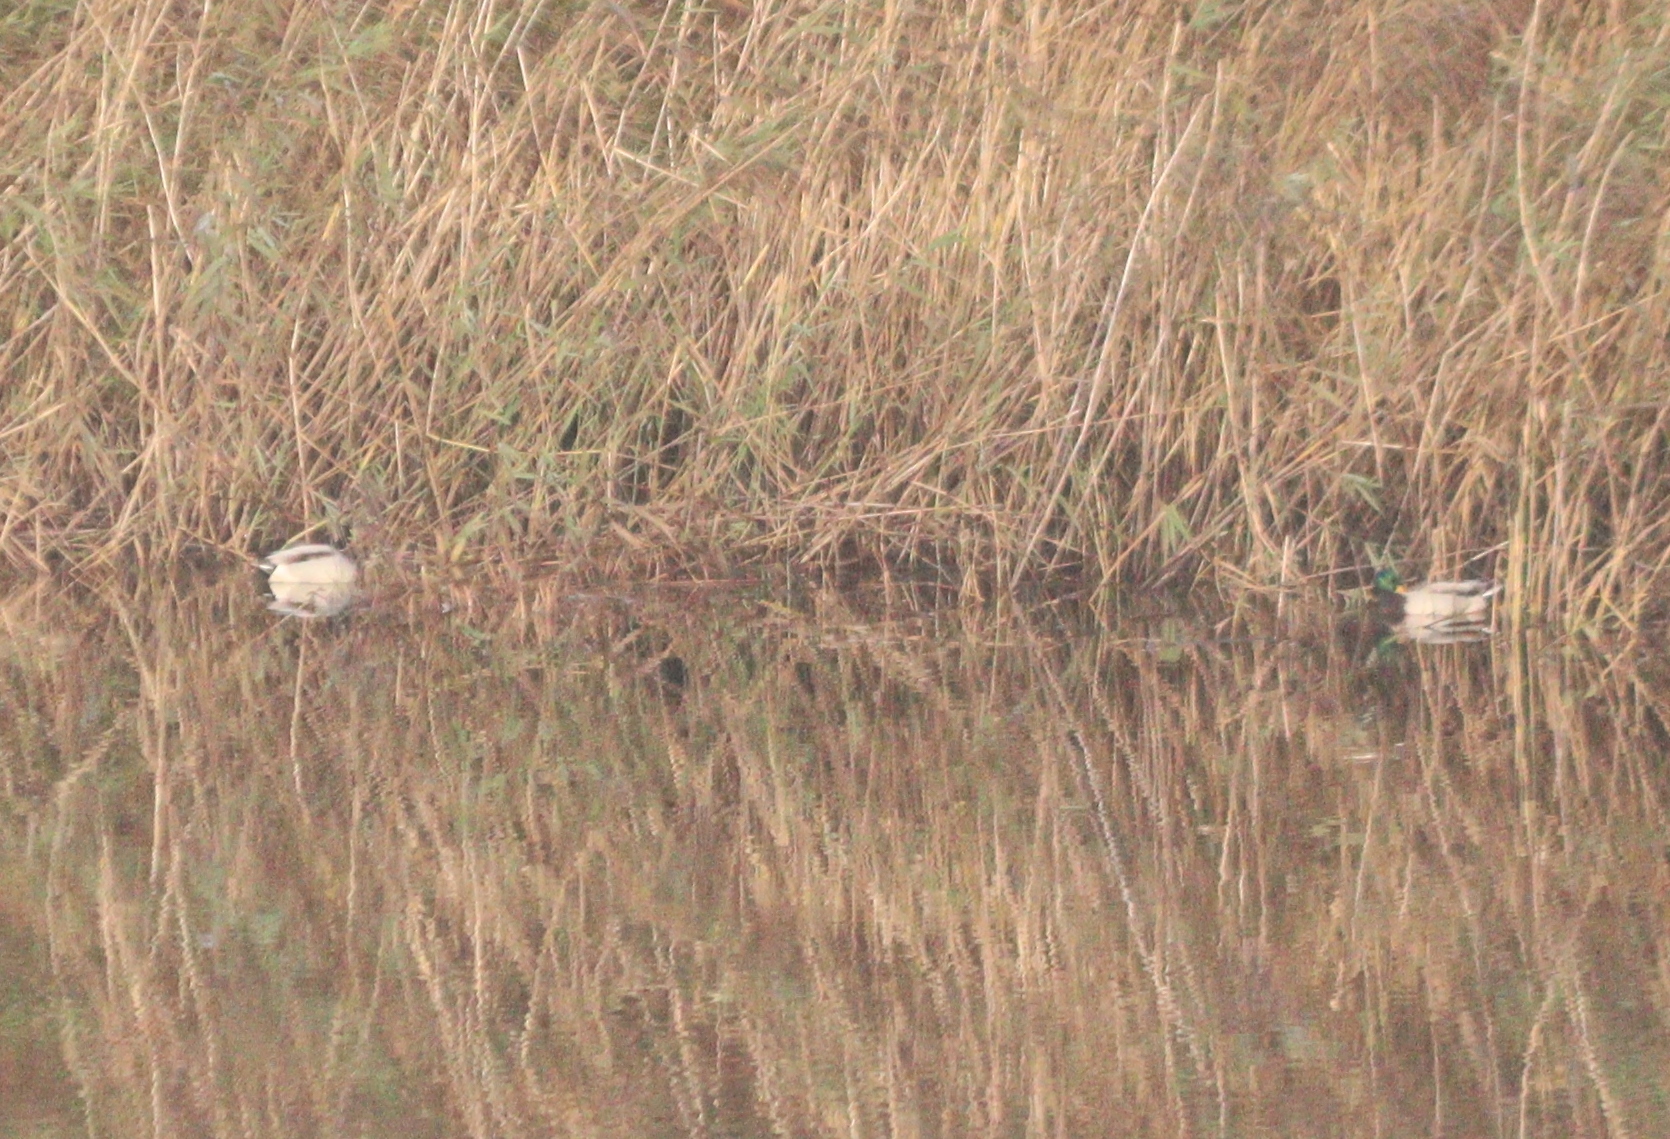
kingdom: Animalia
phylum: Chordata
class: Aves
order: Anseriformes
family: Anatidae
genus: Anas
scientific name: Anas platyrhynchos
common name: Mallard
